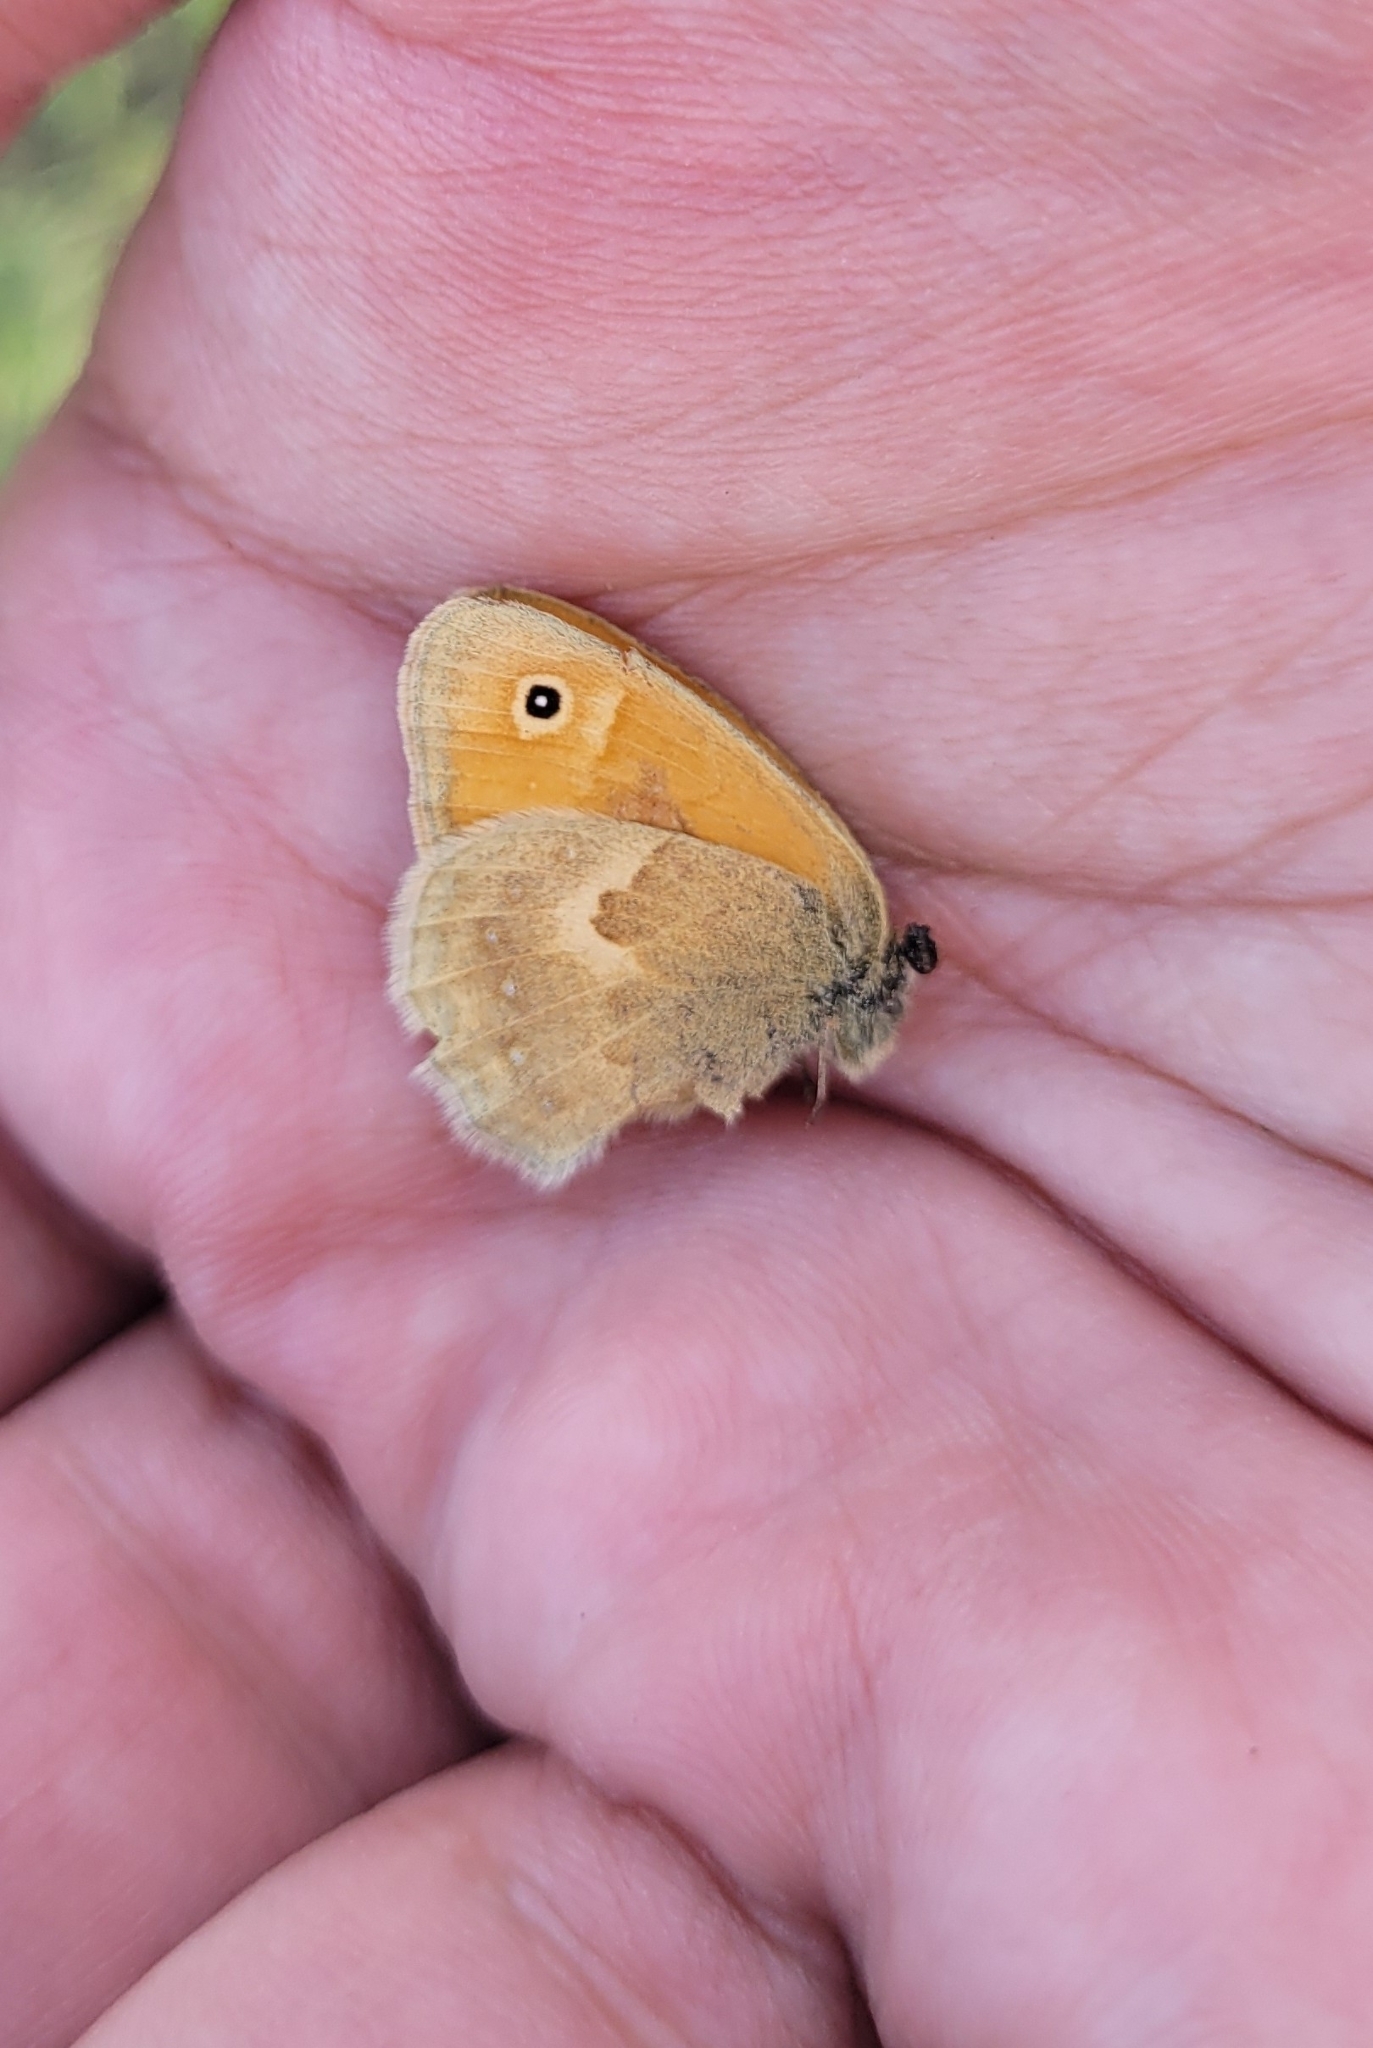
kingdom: Animalia
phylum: Arthropoda
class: Insecta
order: Lepidoptera
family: Nymphalidae
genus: Coenonympha
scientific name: Coenonympha pamphilus
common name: Small heath
